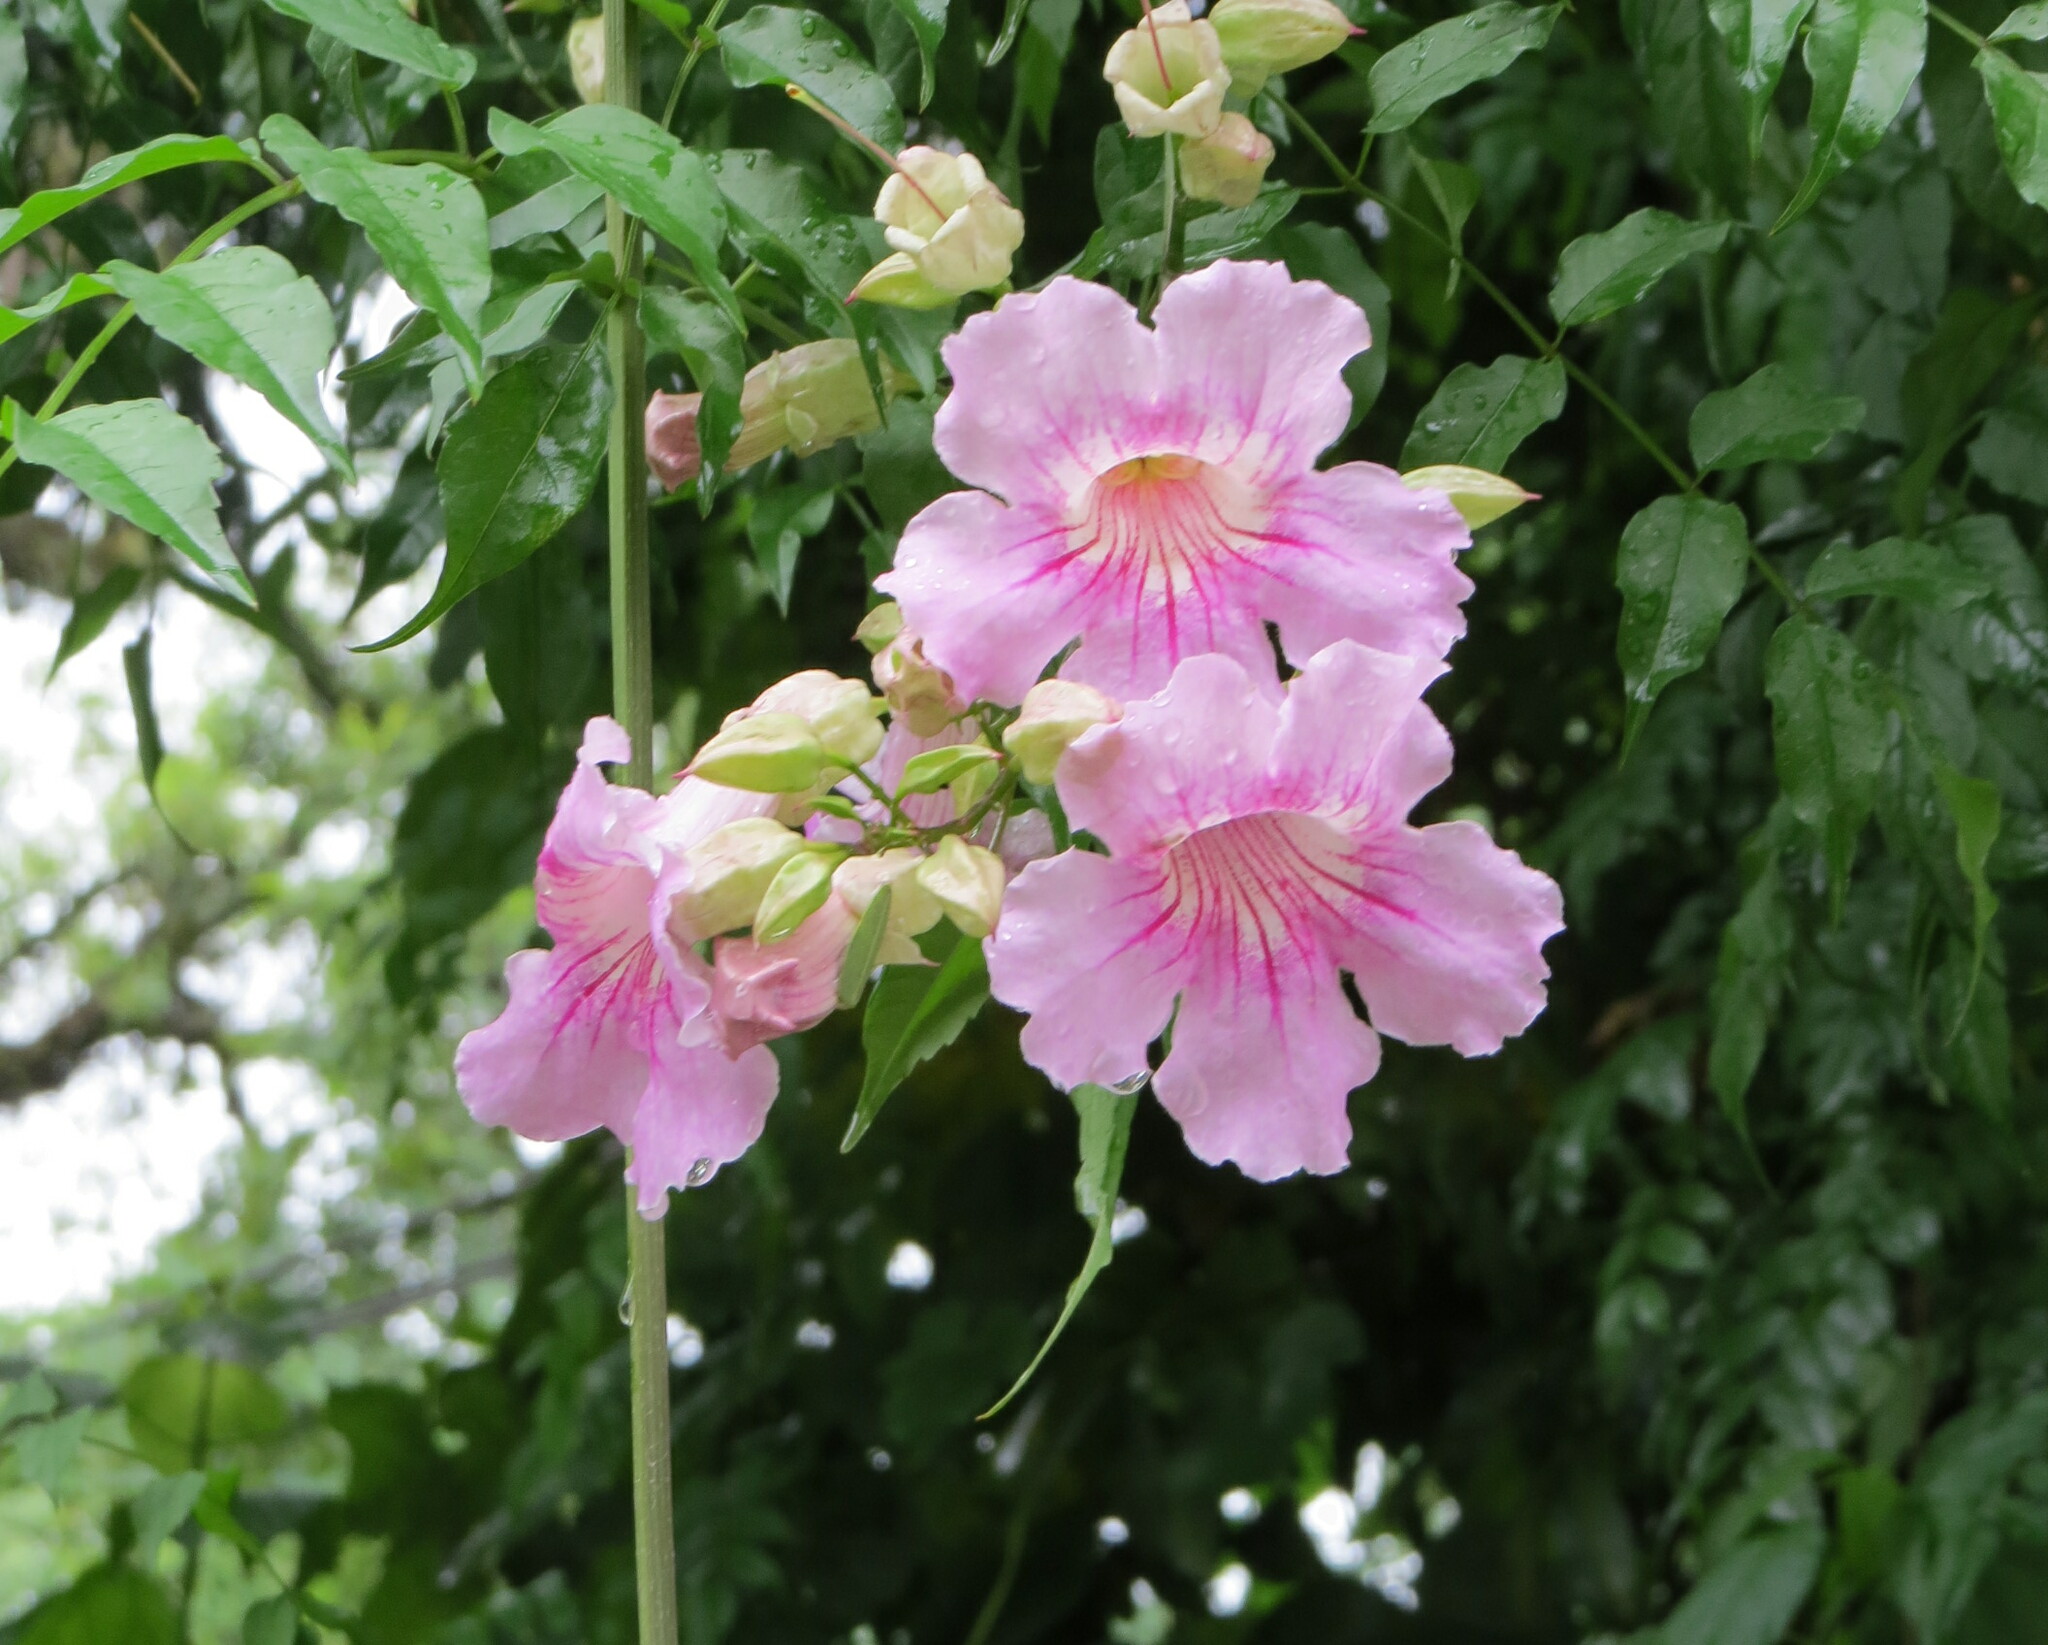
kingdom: Plantae
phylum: Tracheophyta
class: Magnoliopsida
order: Lamiales
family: Bignoniaceae
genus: Podranea
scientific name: Podranea ricasoliana
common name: Zimbabwe creeper
